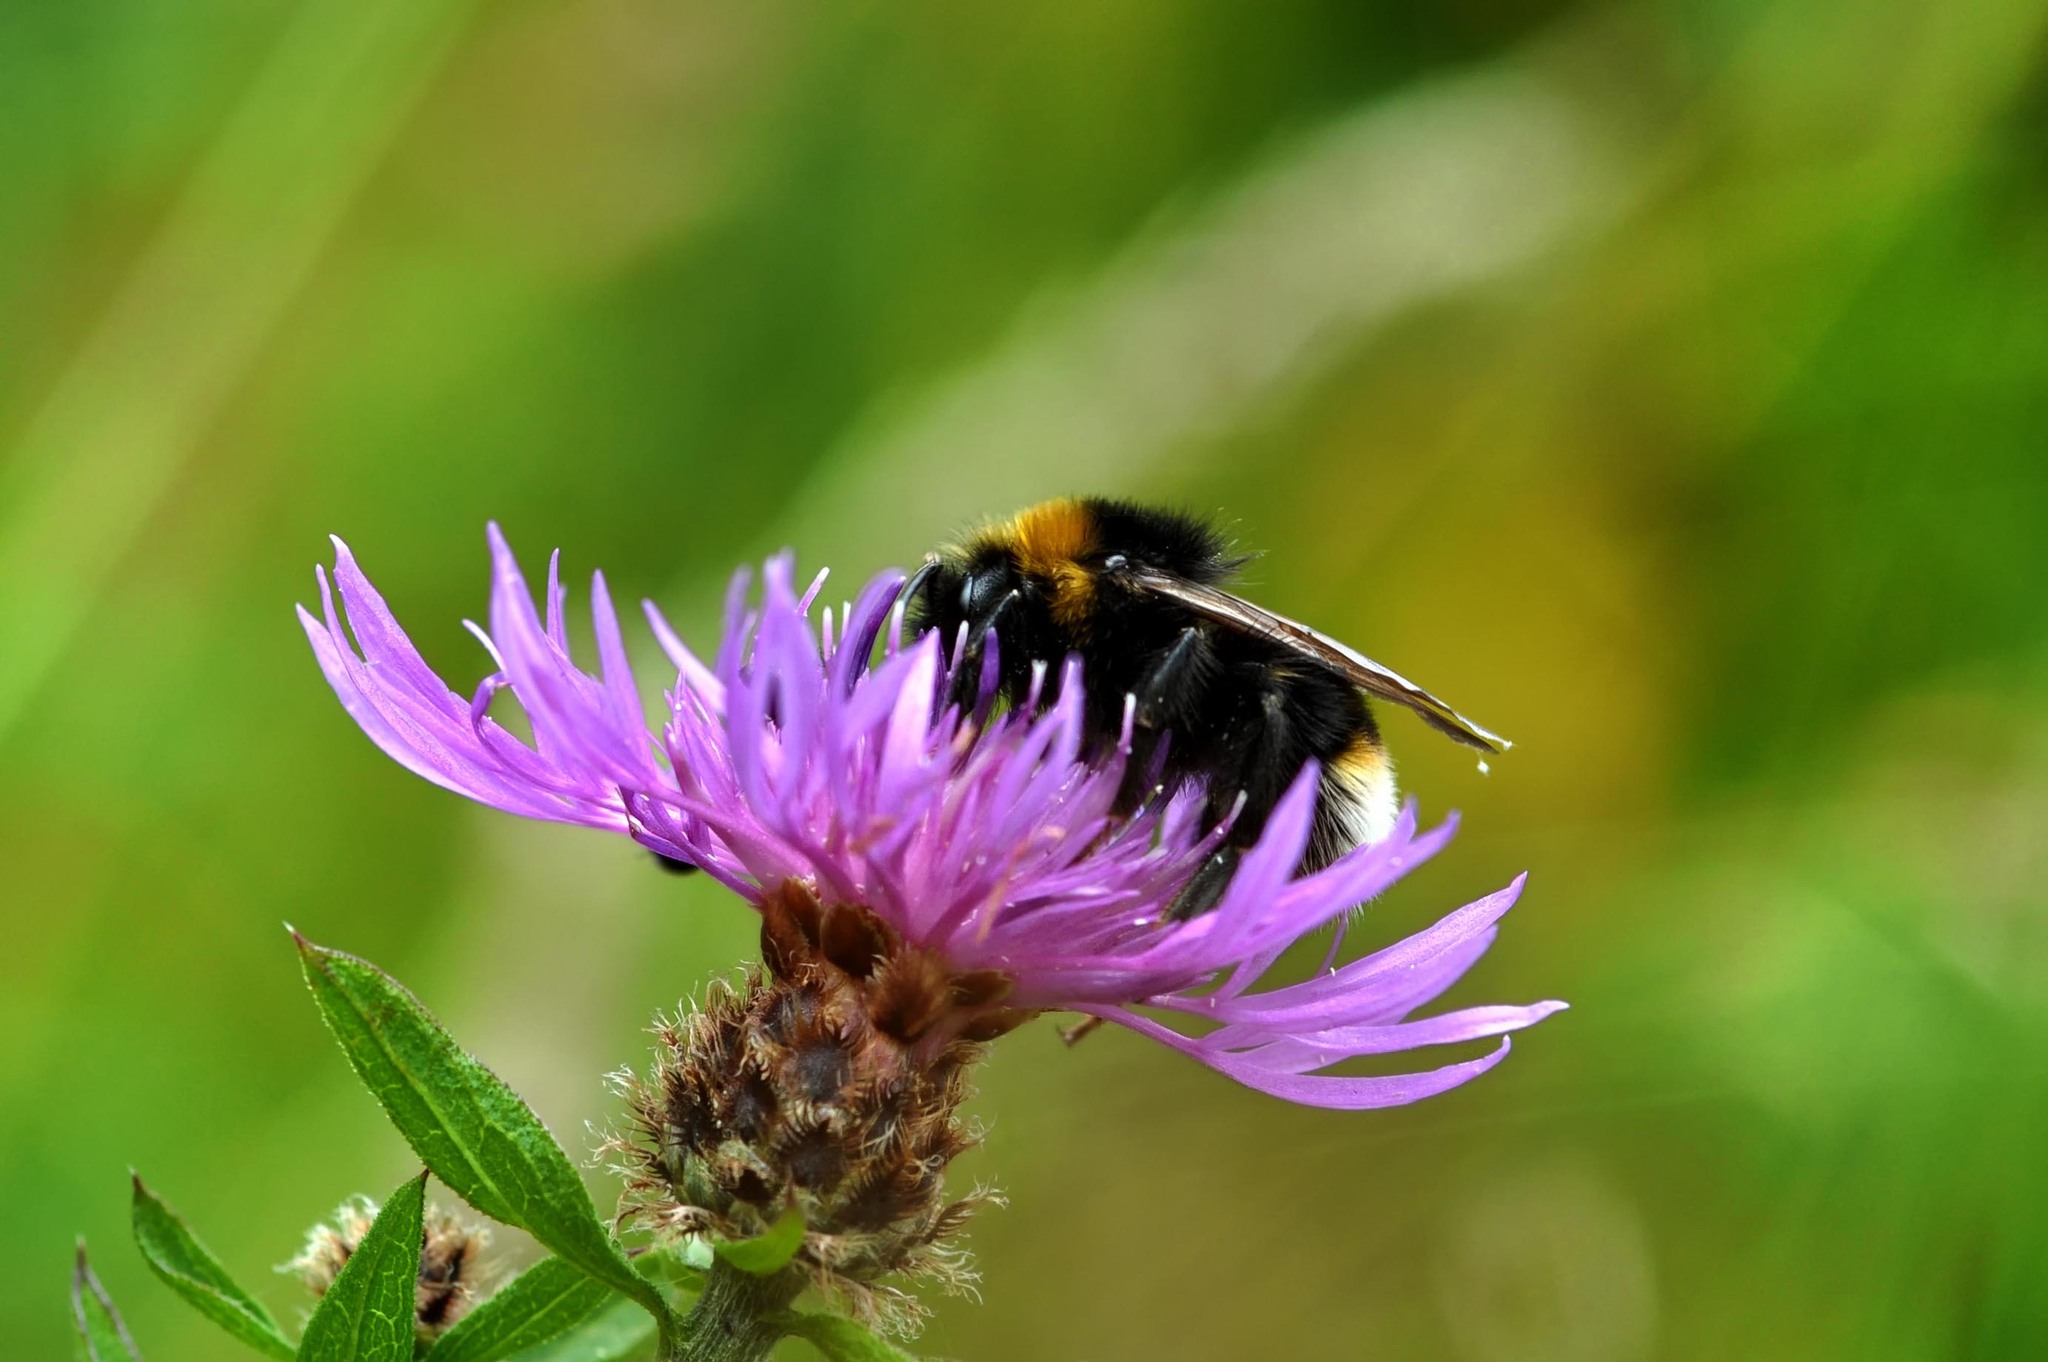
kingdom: Animalia
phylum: Arthropoda
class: Insecta
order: Hymenoptera
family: Apidae
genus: Bombus
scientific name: Bombus vestalis
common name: Vestal cuckoo bee
